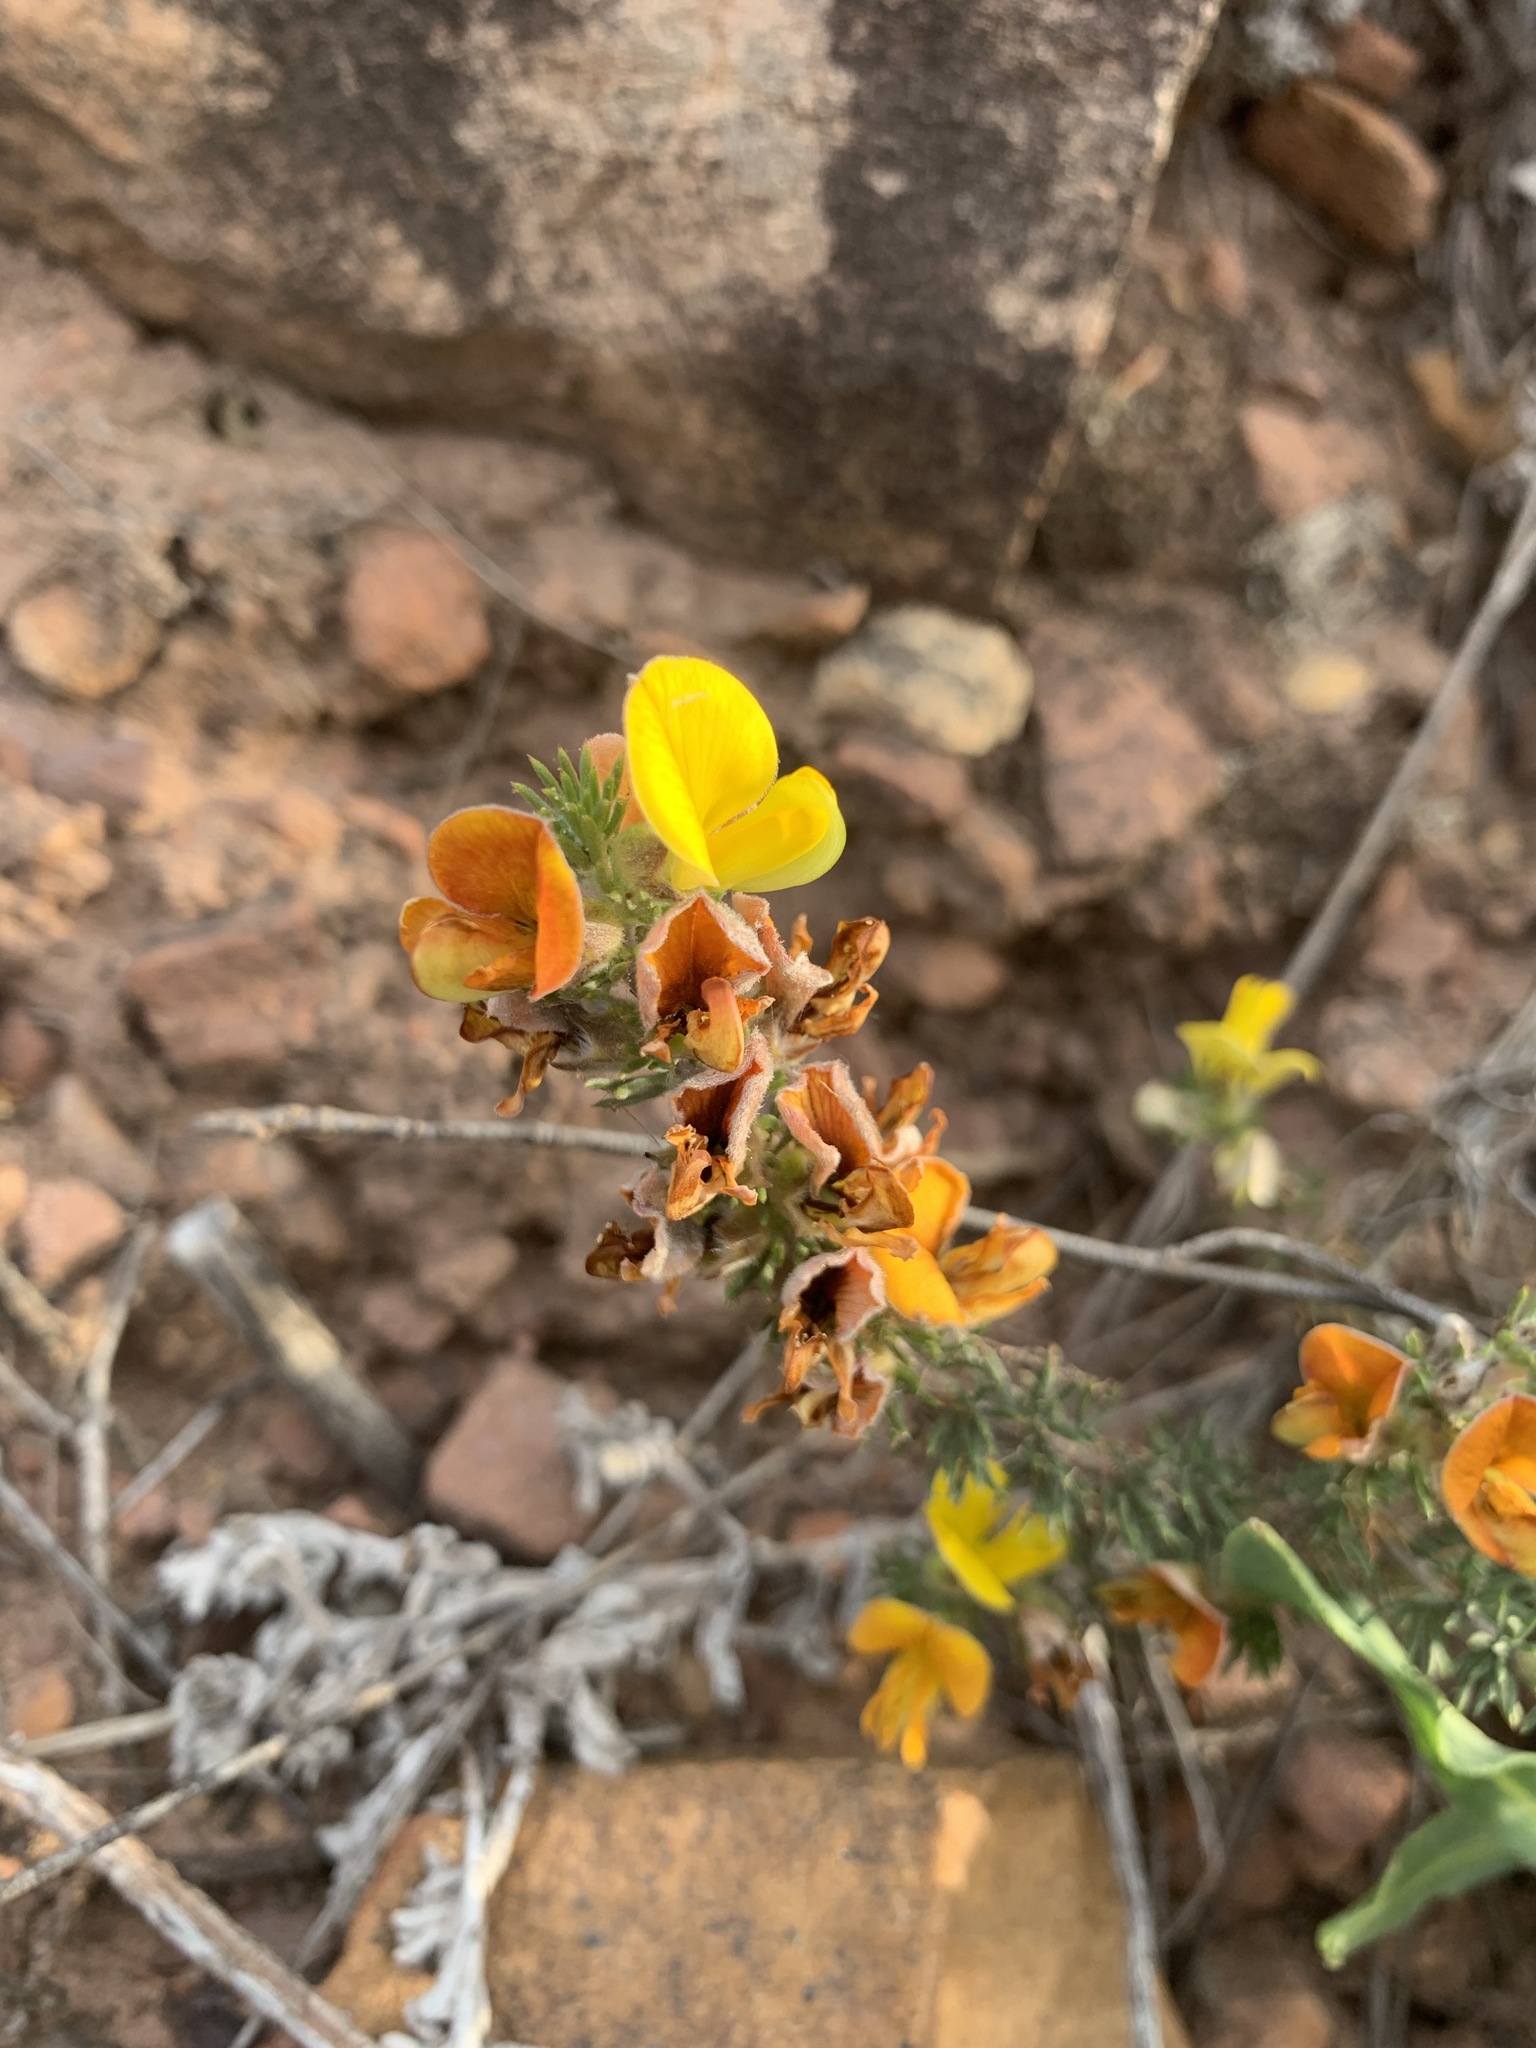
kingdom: Plantae
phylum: Tracheophyta
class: Magnoliopsida
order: Fabales
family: Fabaceae
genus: Aspalathus
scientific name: Aspalathus laricifolia
